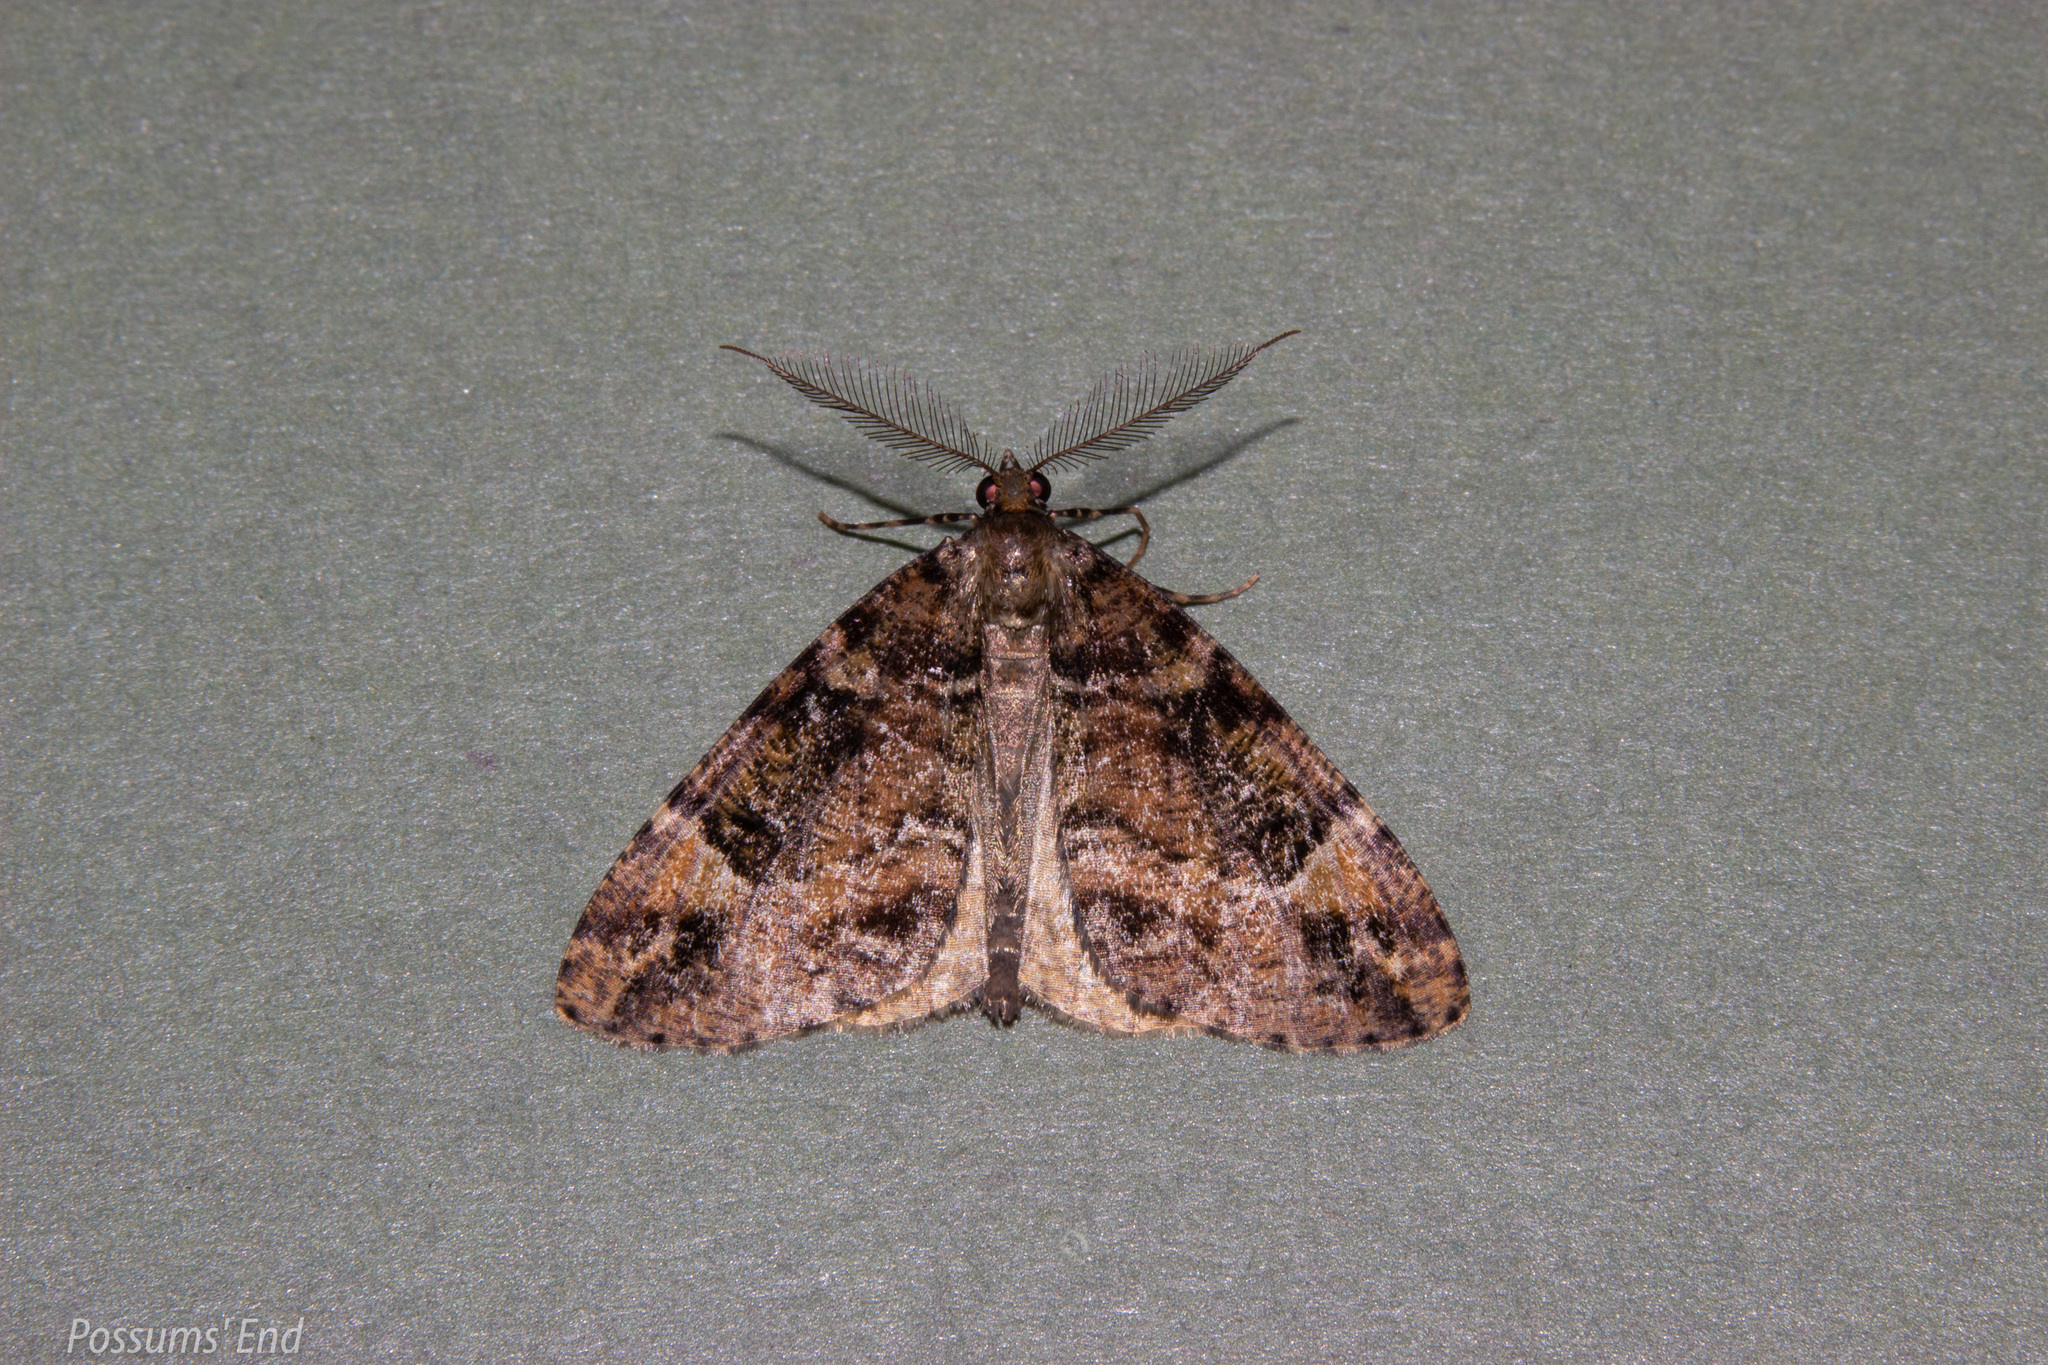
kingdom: Animalia
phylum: Arthropoda
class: Insecta
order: Lepidoptera
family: Geometridae
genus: Pseudocoremia
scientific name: Pseudocoremia productata
